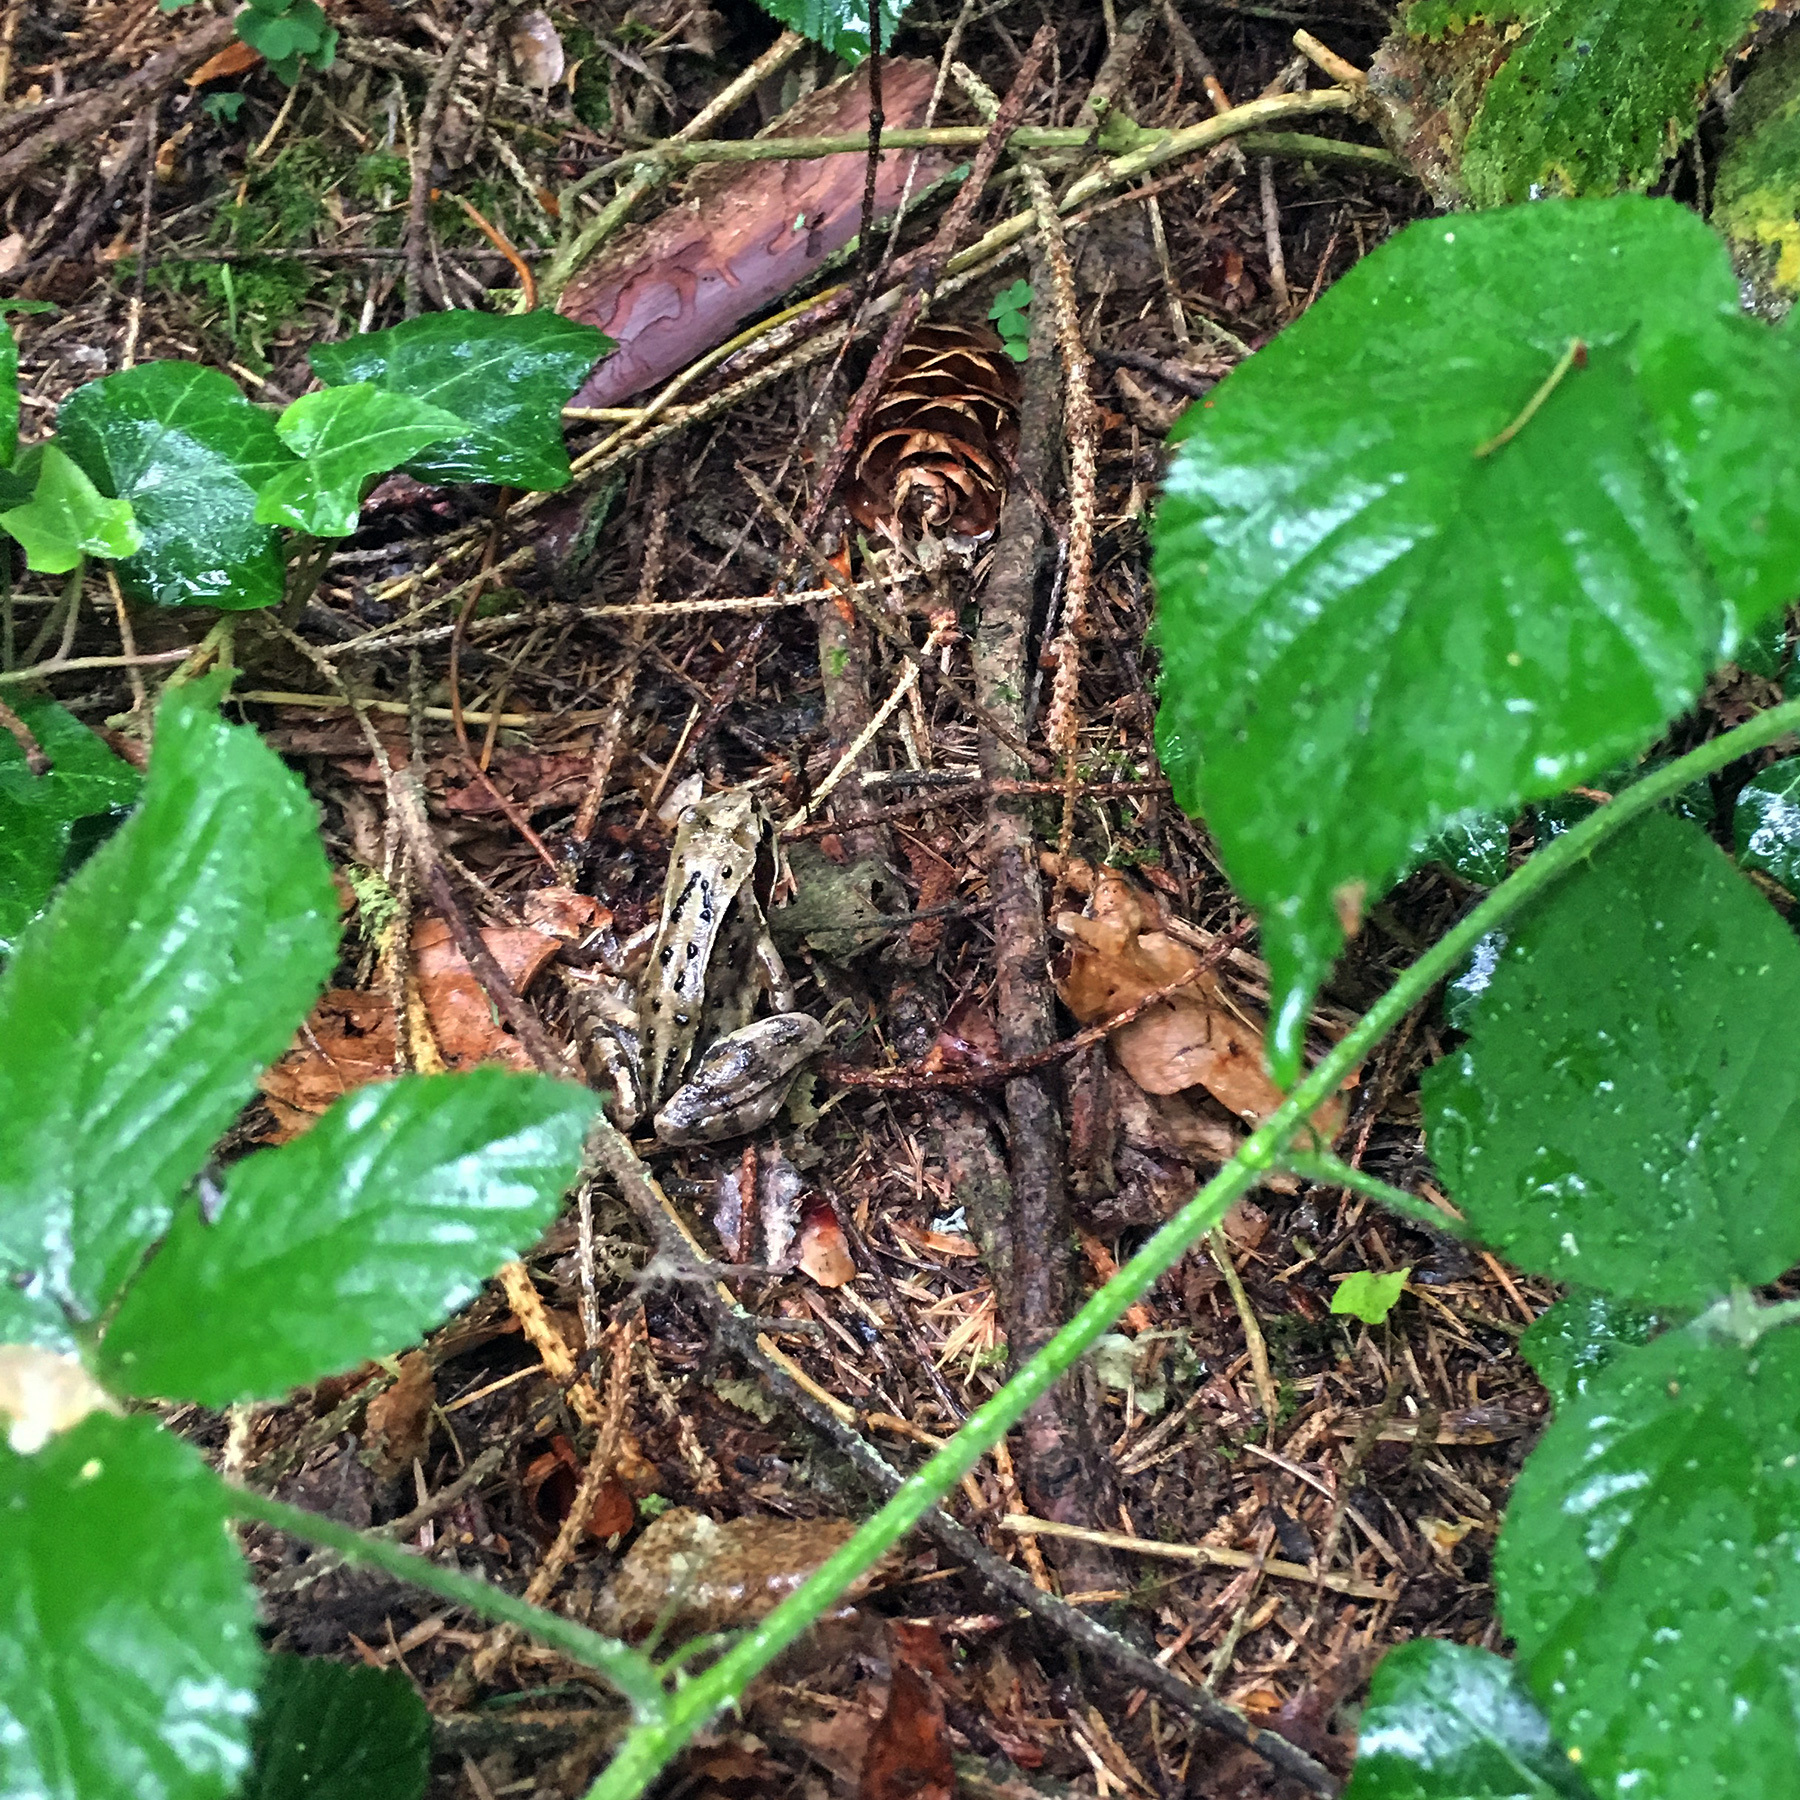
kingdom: Animalia
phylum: Chordata
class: Amphibia
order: Anura
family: Ranidae
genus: Rana
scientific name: Rana temporaria
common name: Common frog
